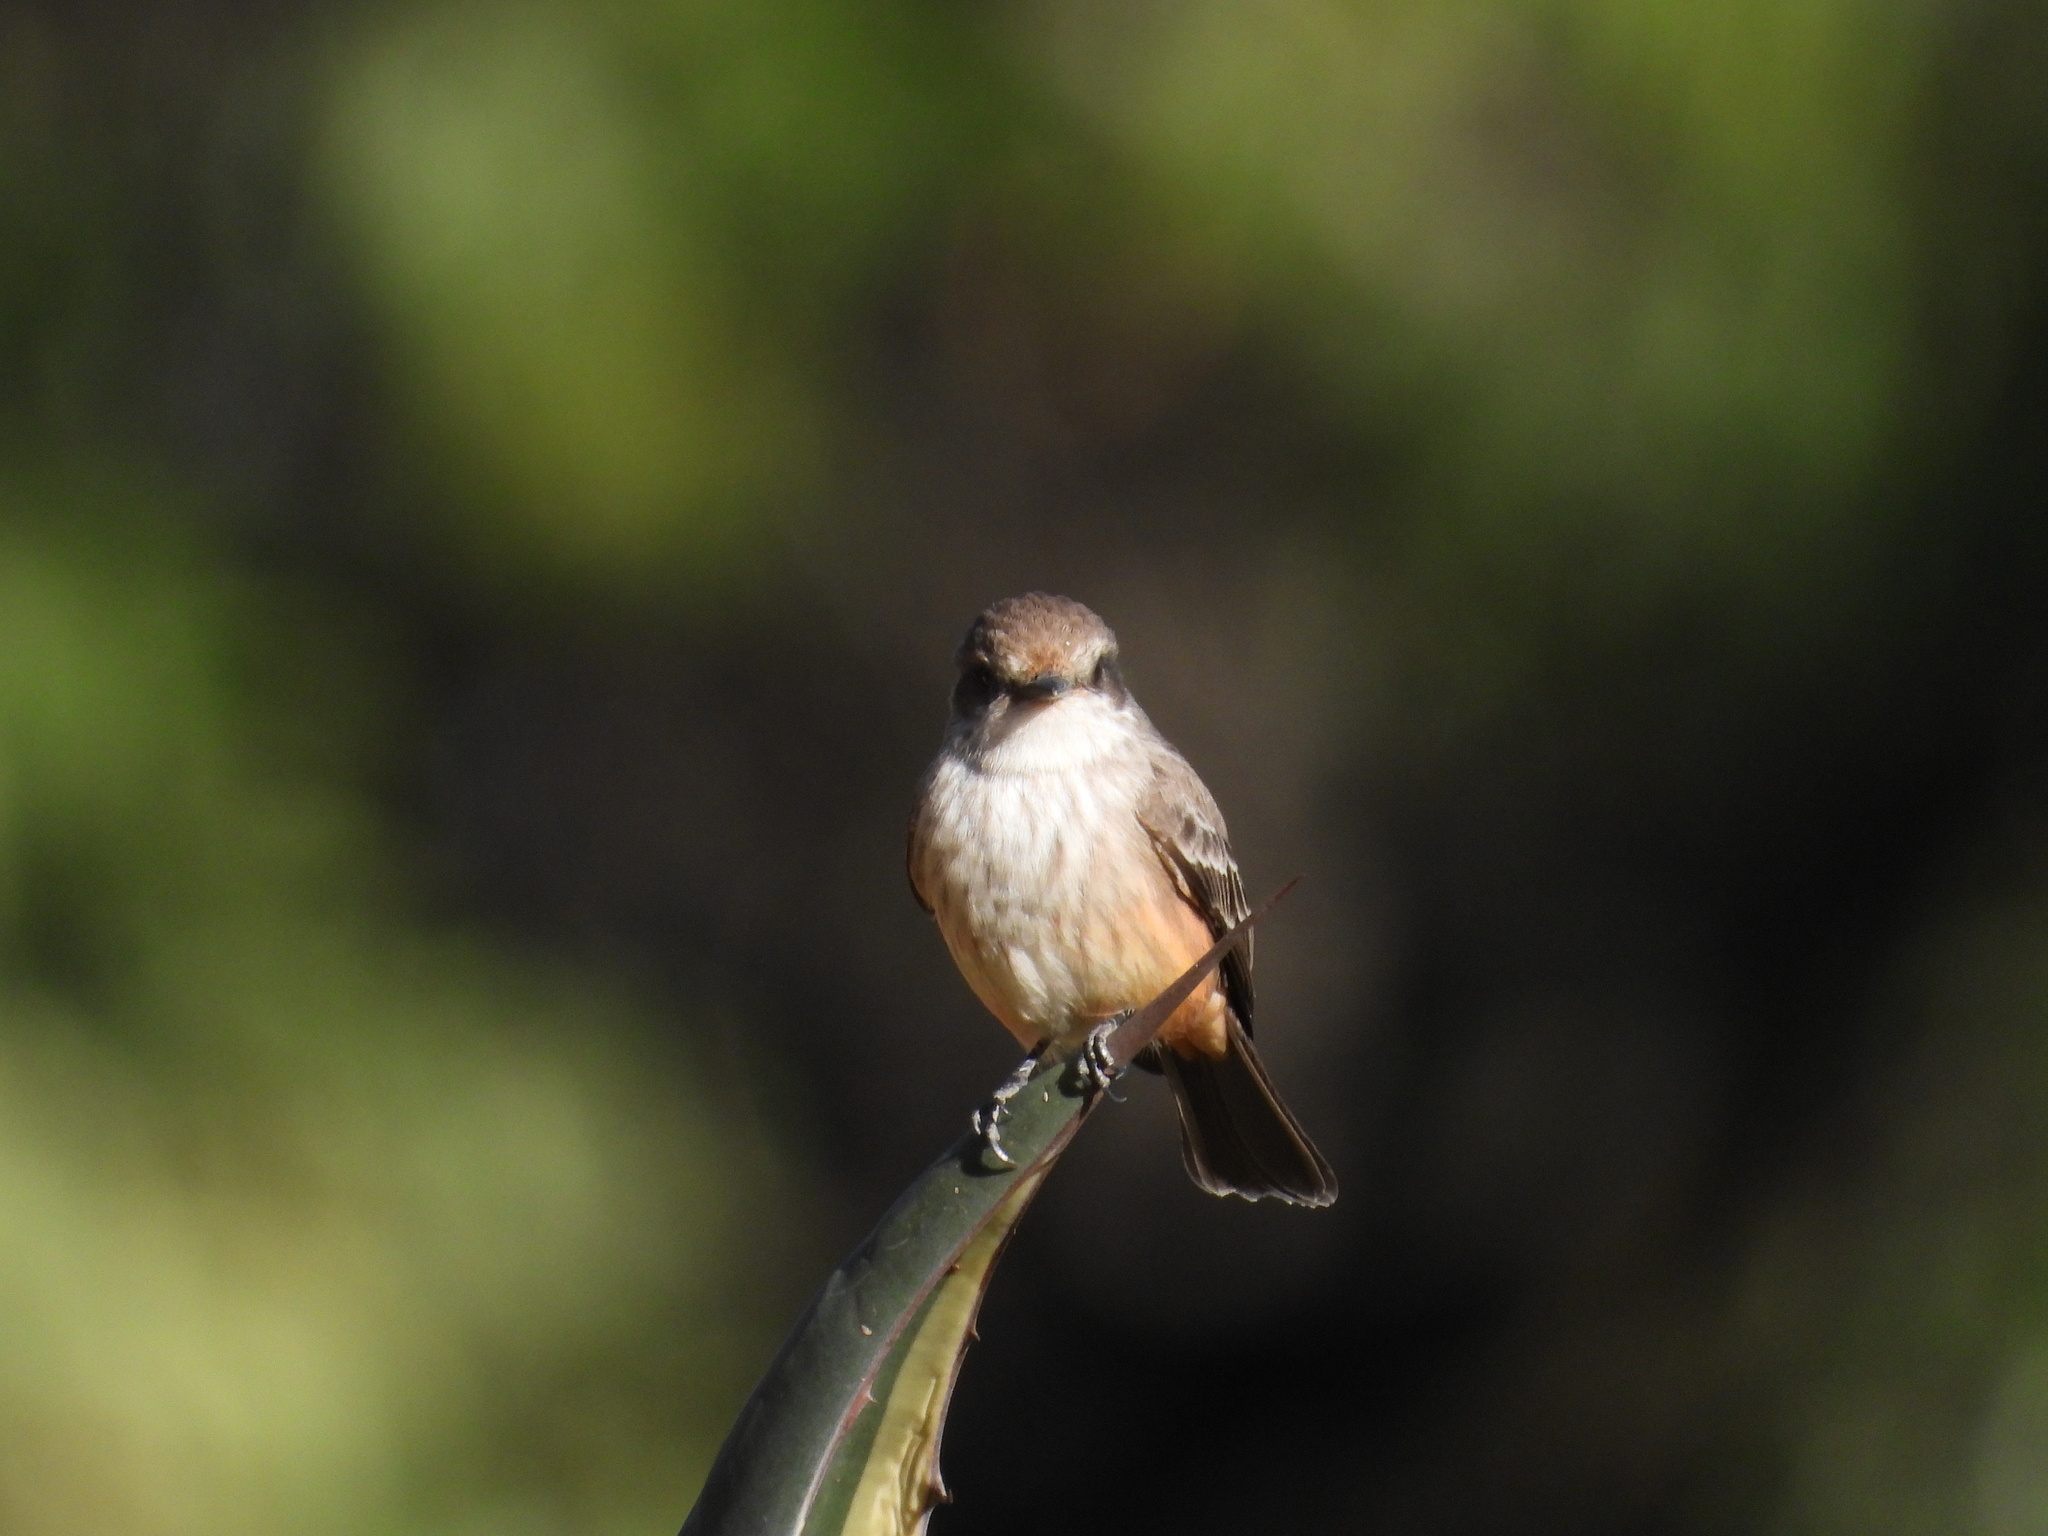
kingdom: Animalia
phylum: Chordata
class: Aves
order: Passeriformes
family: Tyrannidae
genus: Pyrocephalus
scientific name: Pyrocephalus rubinus
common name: Vermilion flycatcher
